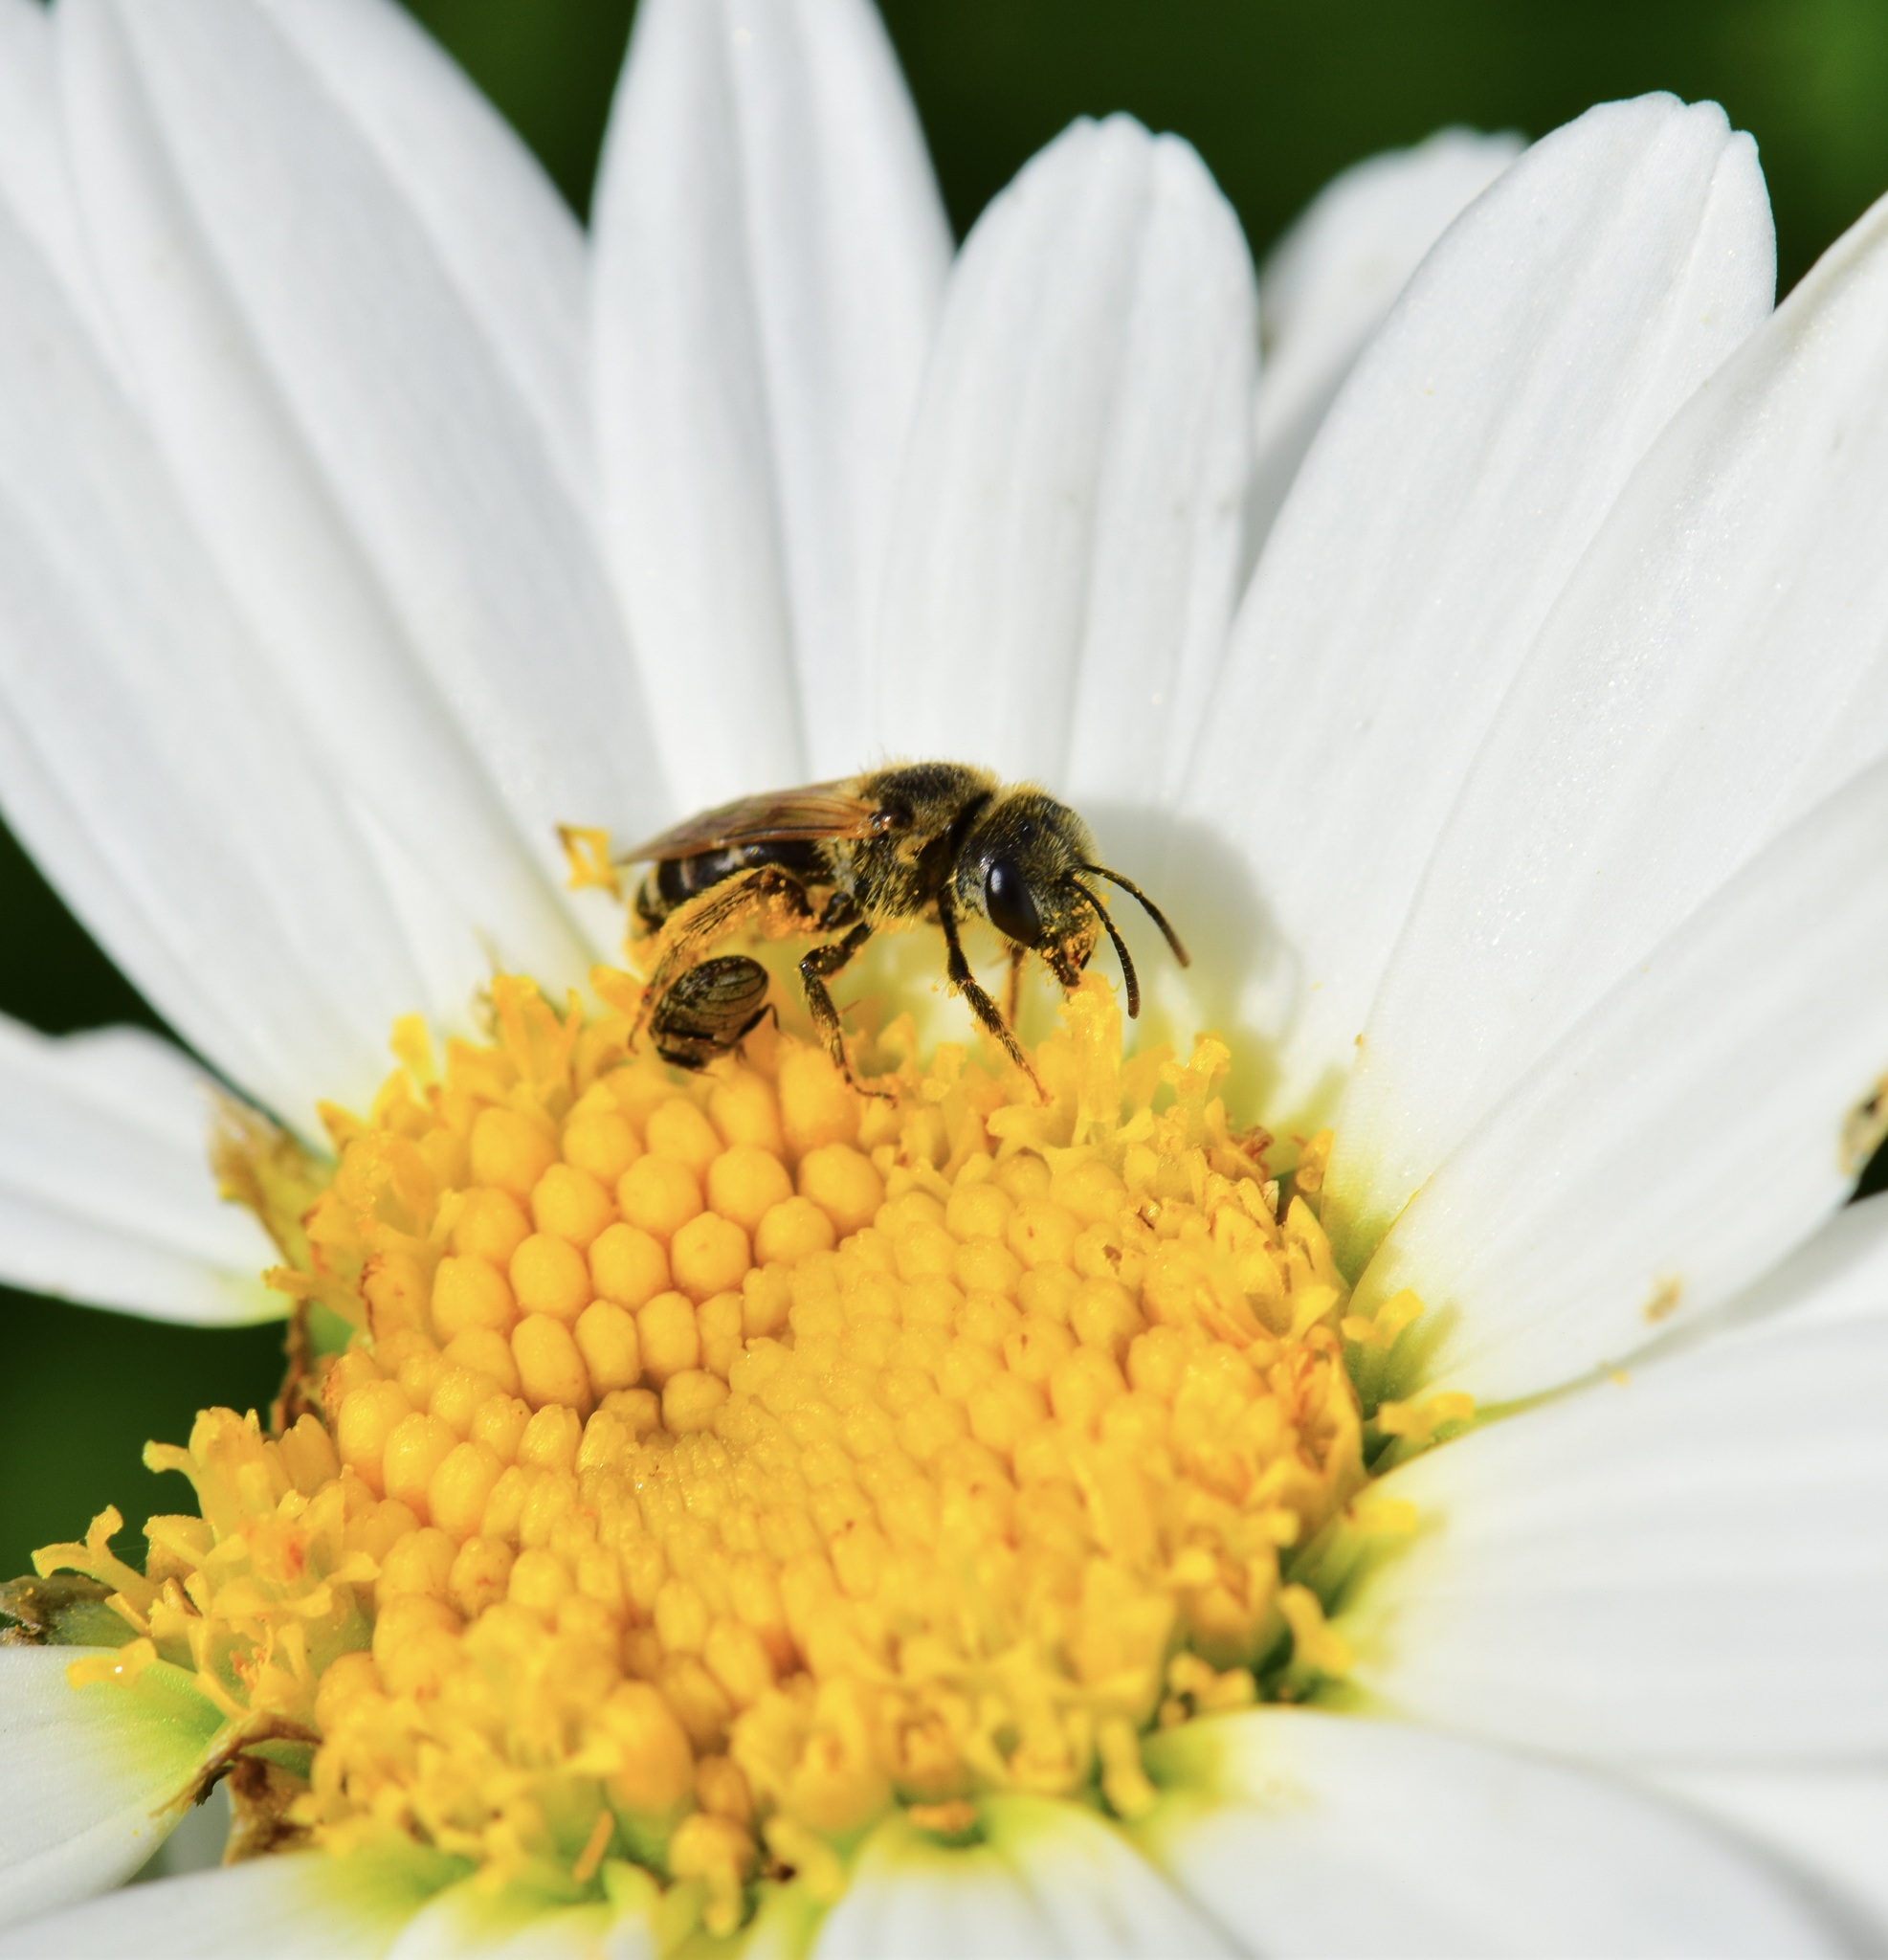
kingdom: Animalia
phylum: Arthropoda
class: Insecta
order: Hymenoptera
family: Halictidae
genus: Halictus
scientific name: Halictus ligatus
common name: Ligated furrow bee
